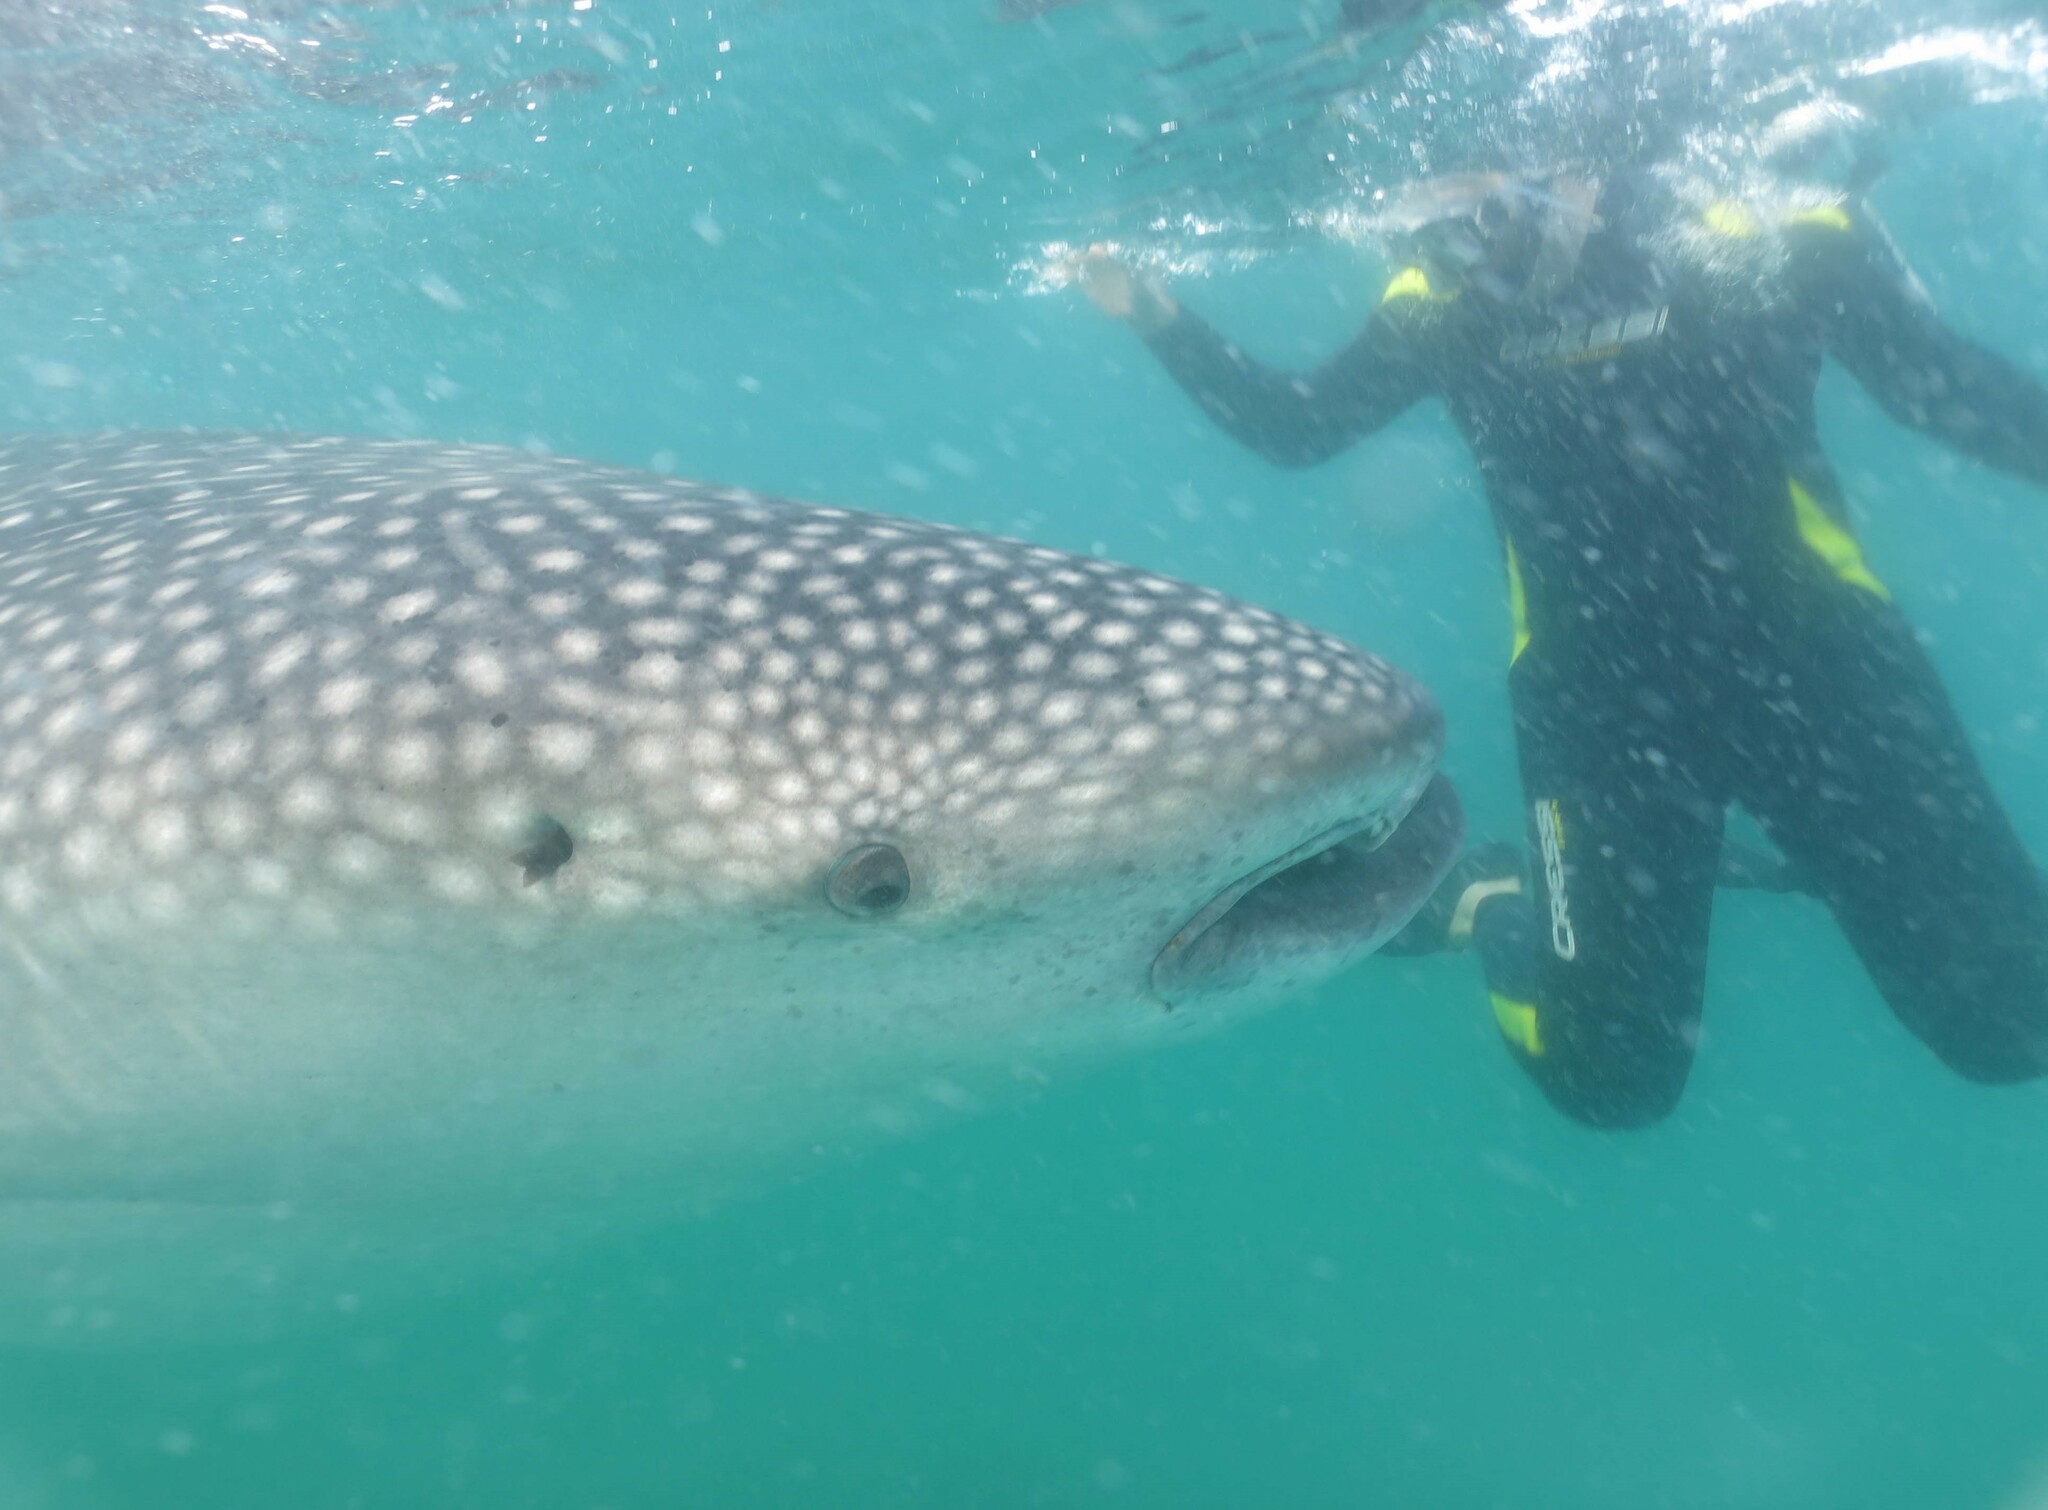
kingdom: Animalia
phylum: Chordata
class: Elasmobranchii
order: Orectolobiformes
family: Rhincodontidae
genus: Rhincodon
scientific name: Rhincodon typus
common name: Whale shark
